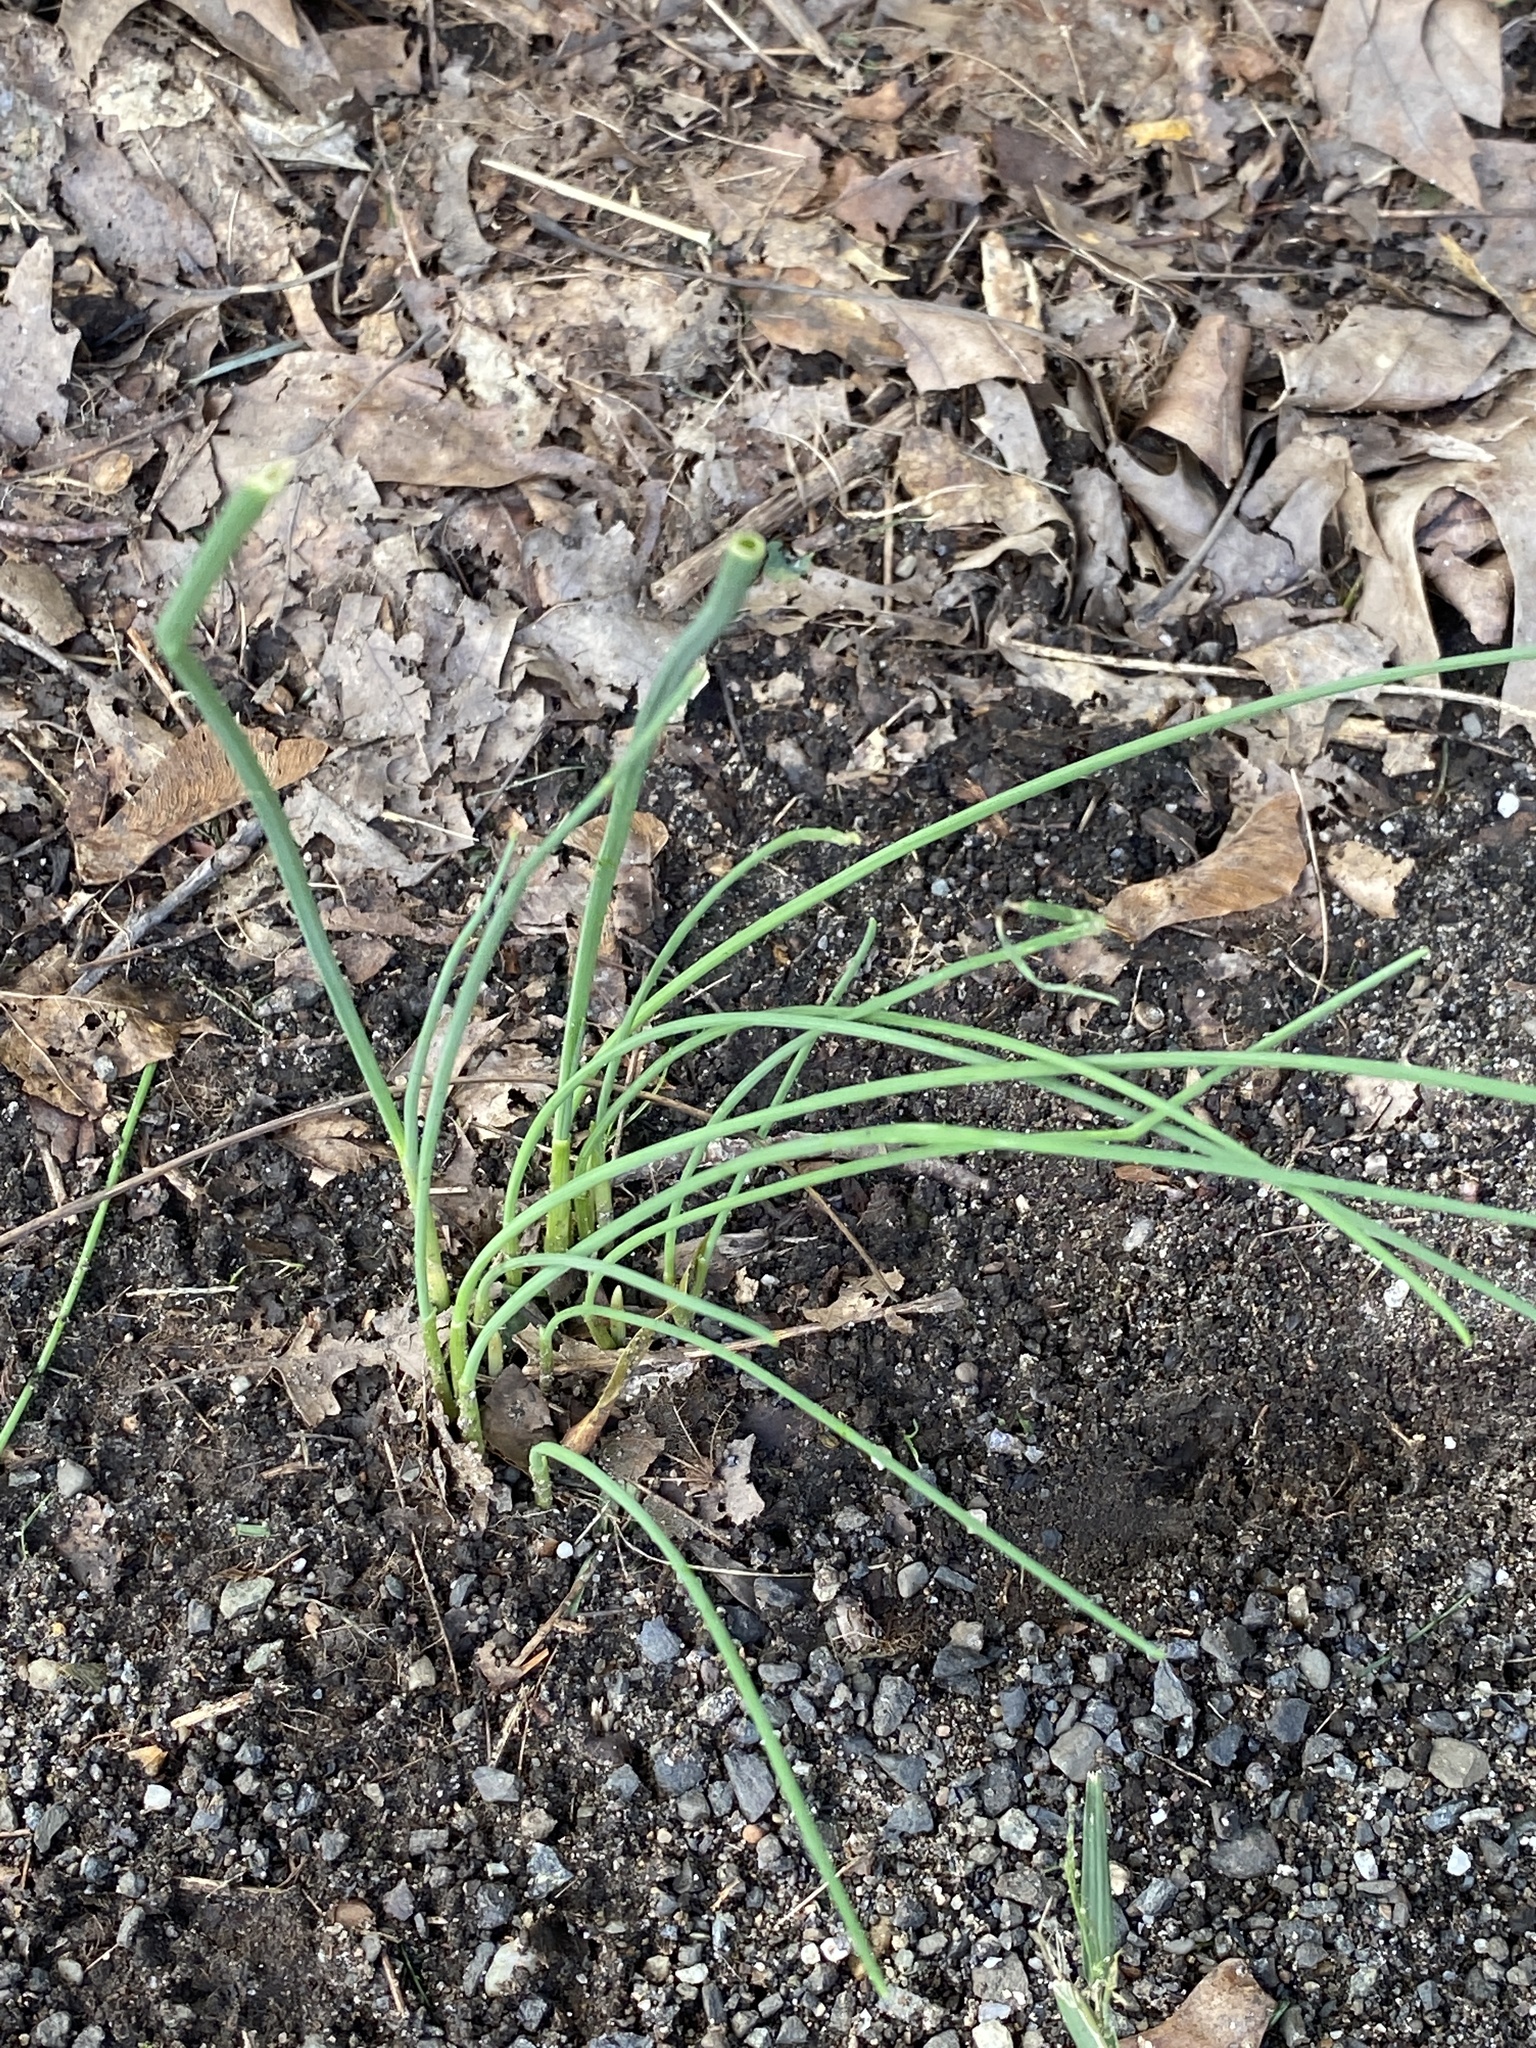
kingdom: Plantae
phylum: Tracheophyta
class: Liliopsida
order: Asparagales
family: Amaryllidaceae
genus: Allium
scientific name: Allium vineale
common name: Crow garlic
